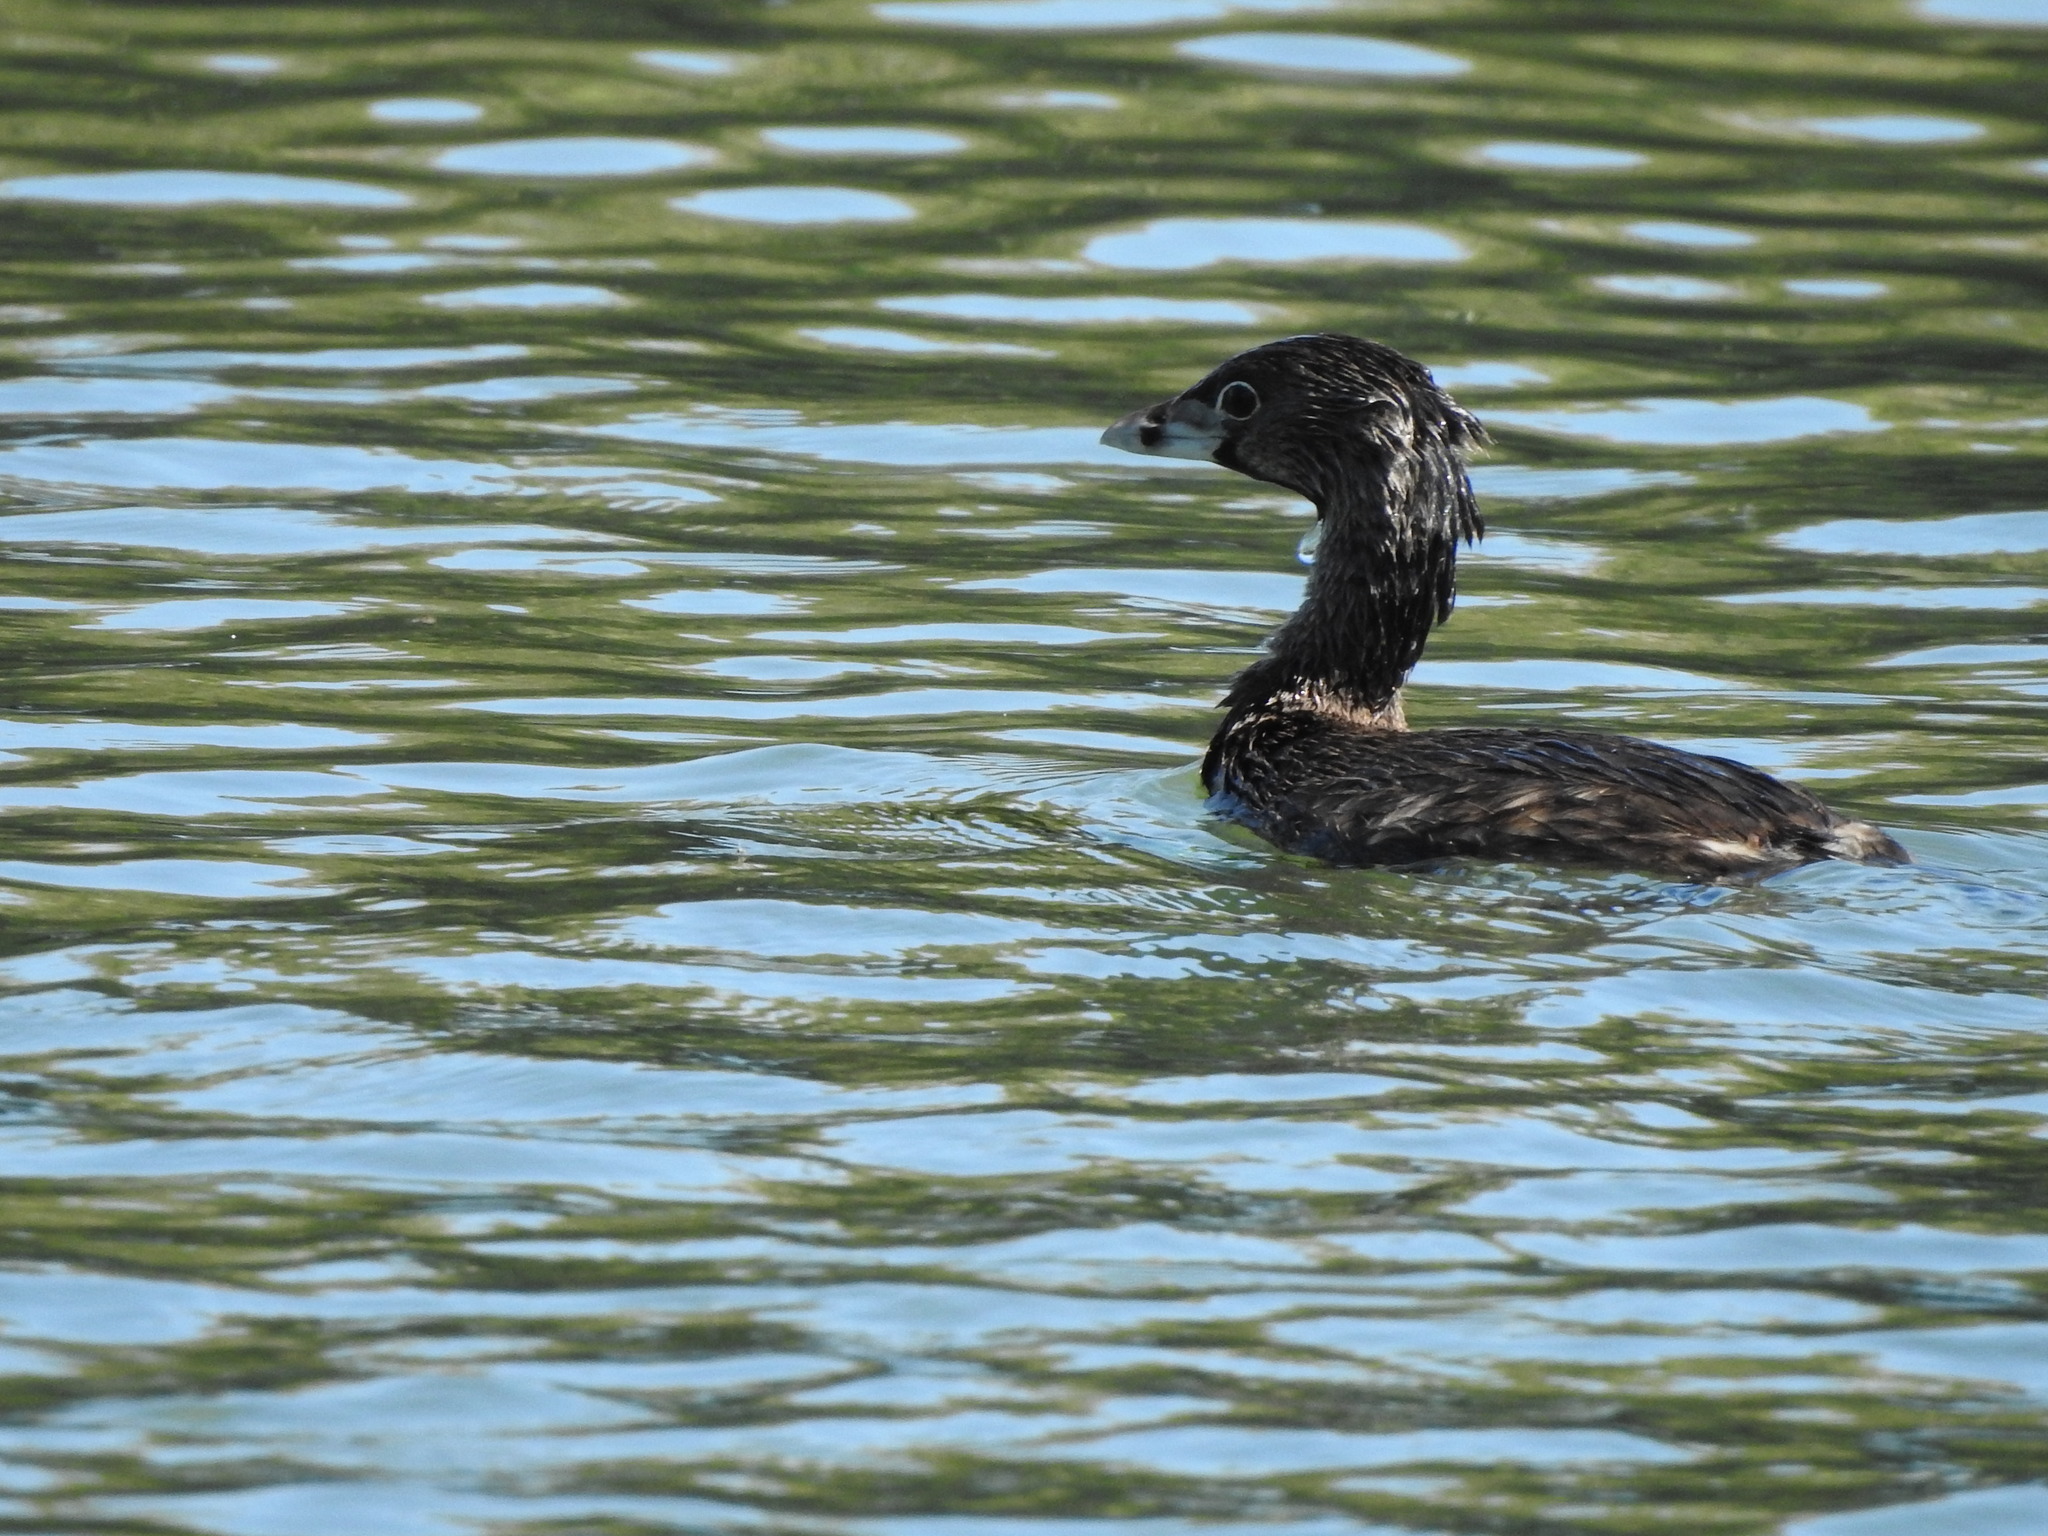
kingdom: Animalia
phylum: Chordata
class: Aves
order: Podicipediformes
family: Podicipedidae
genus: Podilymbus
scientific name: Podilymbus podiceps
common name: Pied-billed grebe
